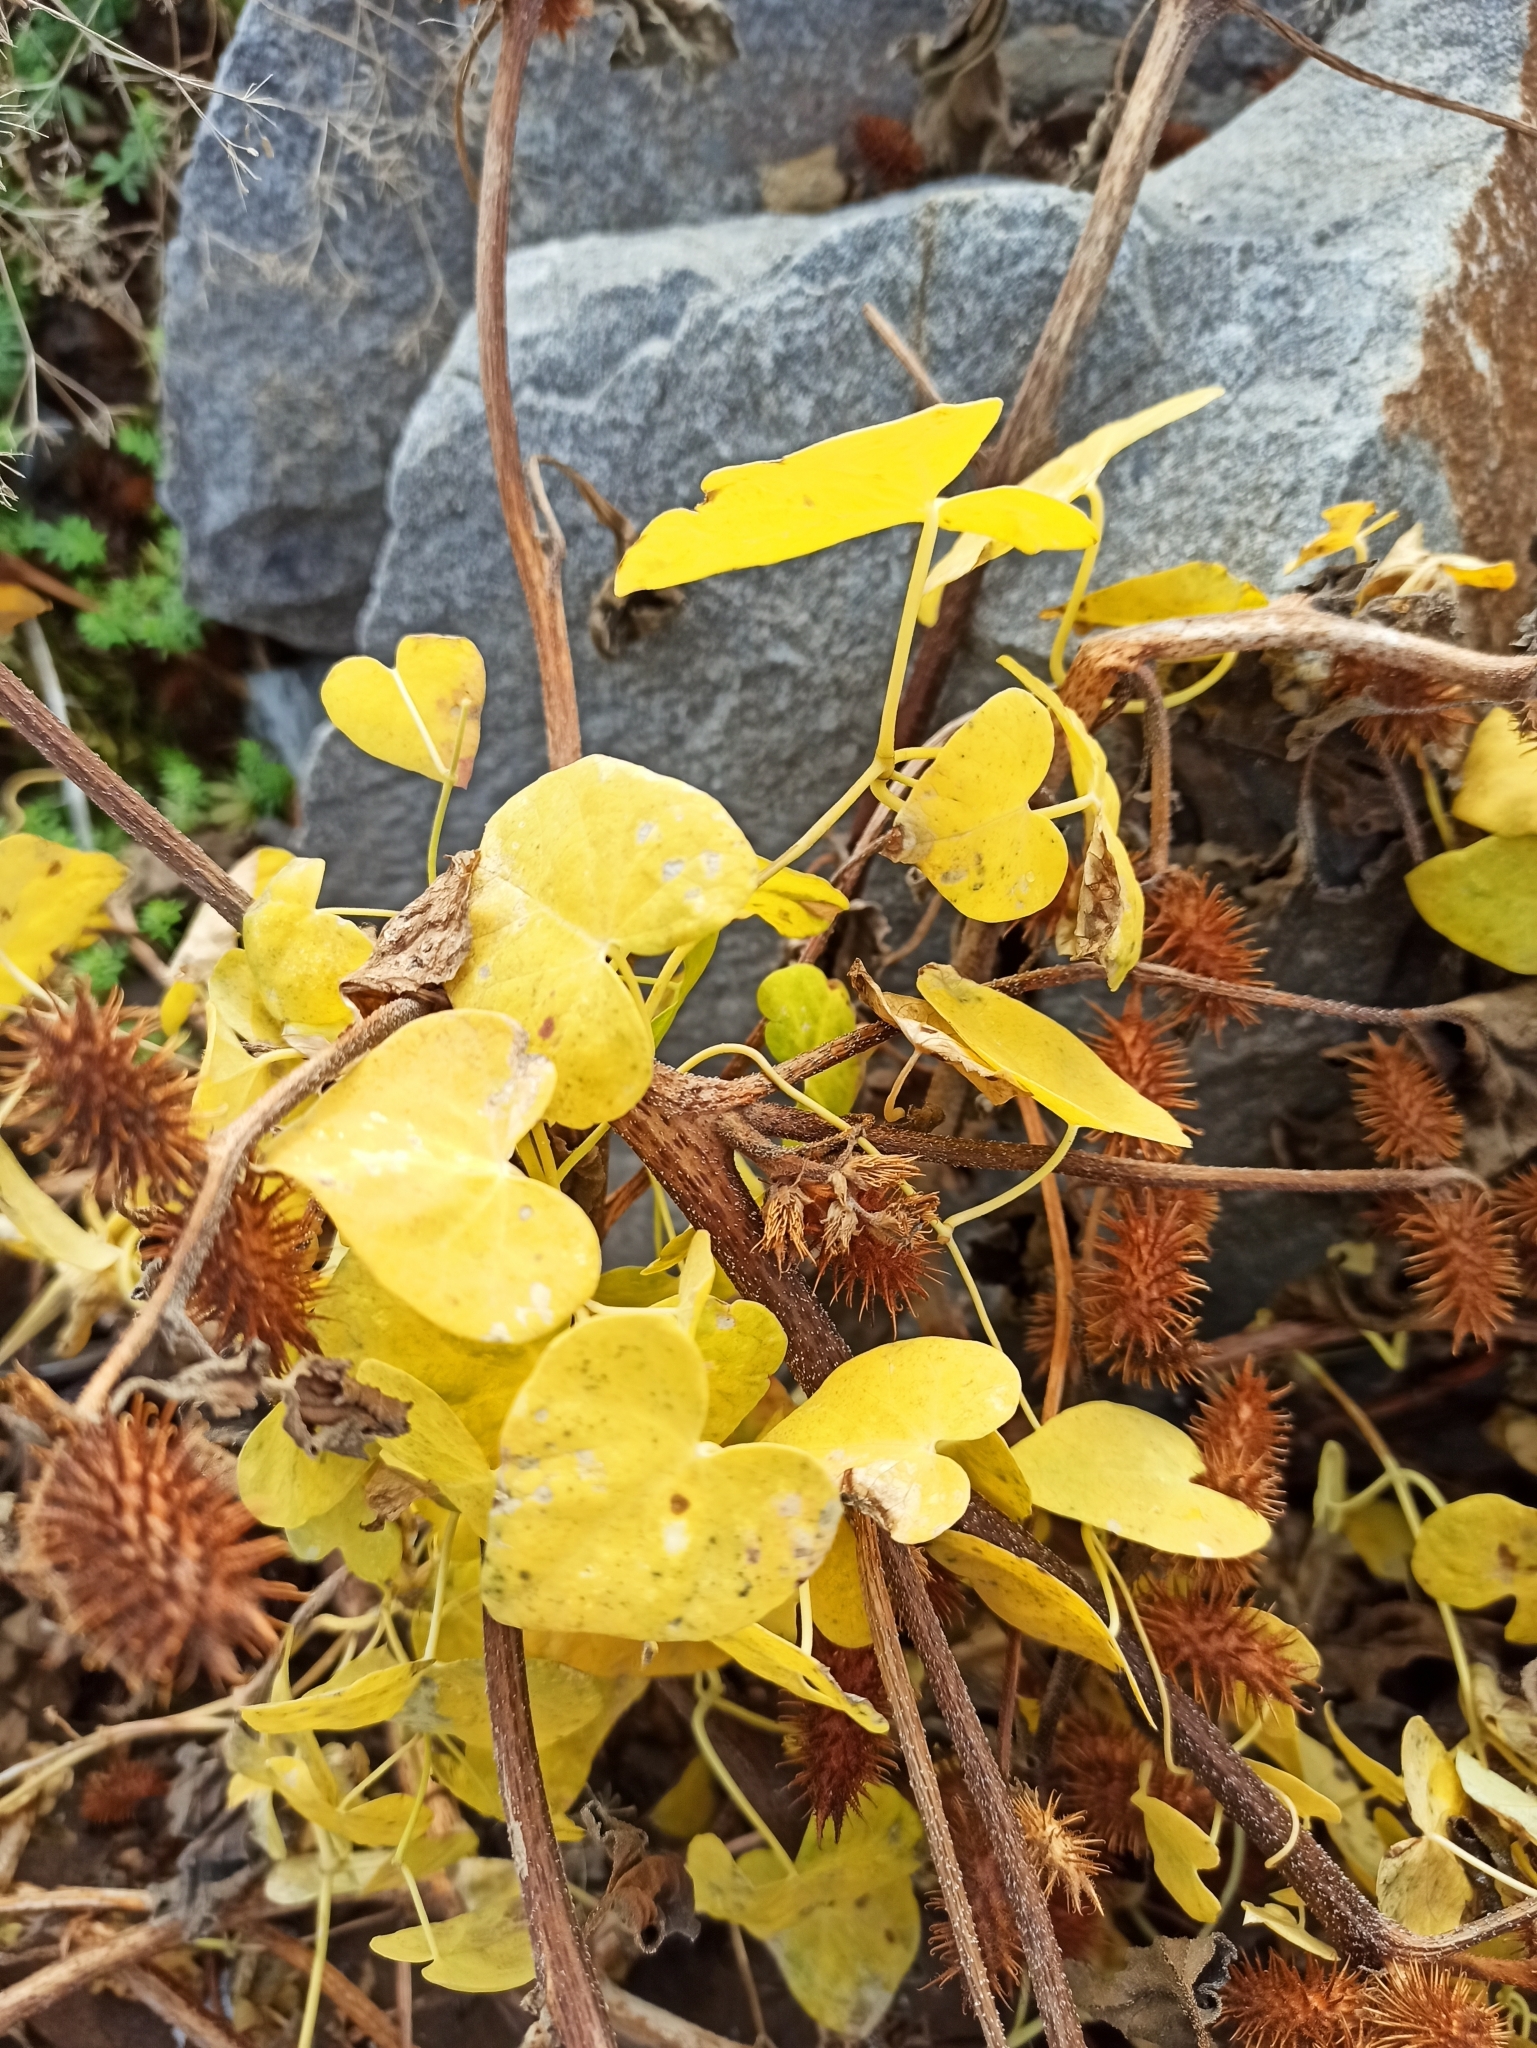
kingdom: Plantae
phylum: Tracheophyta
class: Magnoliopsida
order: Gentianales
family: Apocynaceae
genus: Cynanchum
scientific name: Cynanchum acutum
